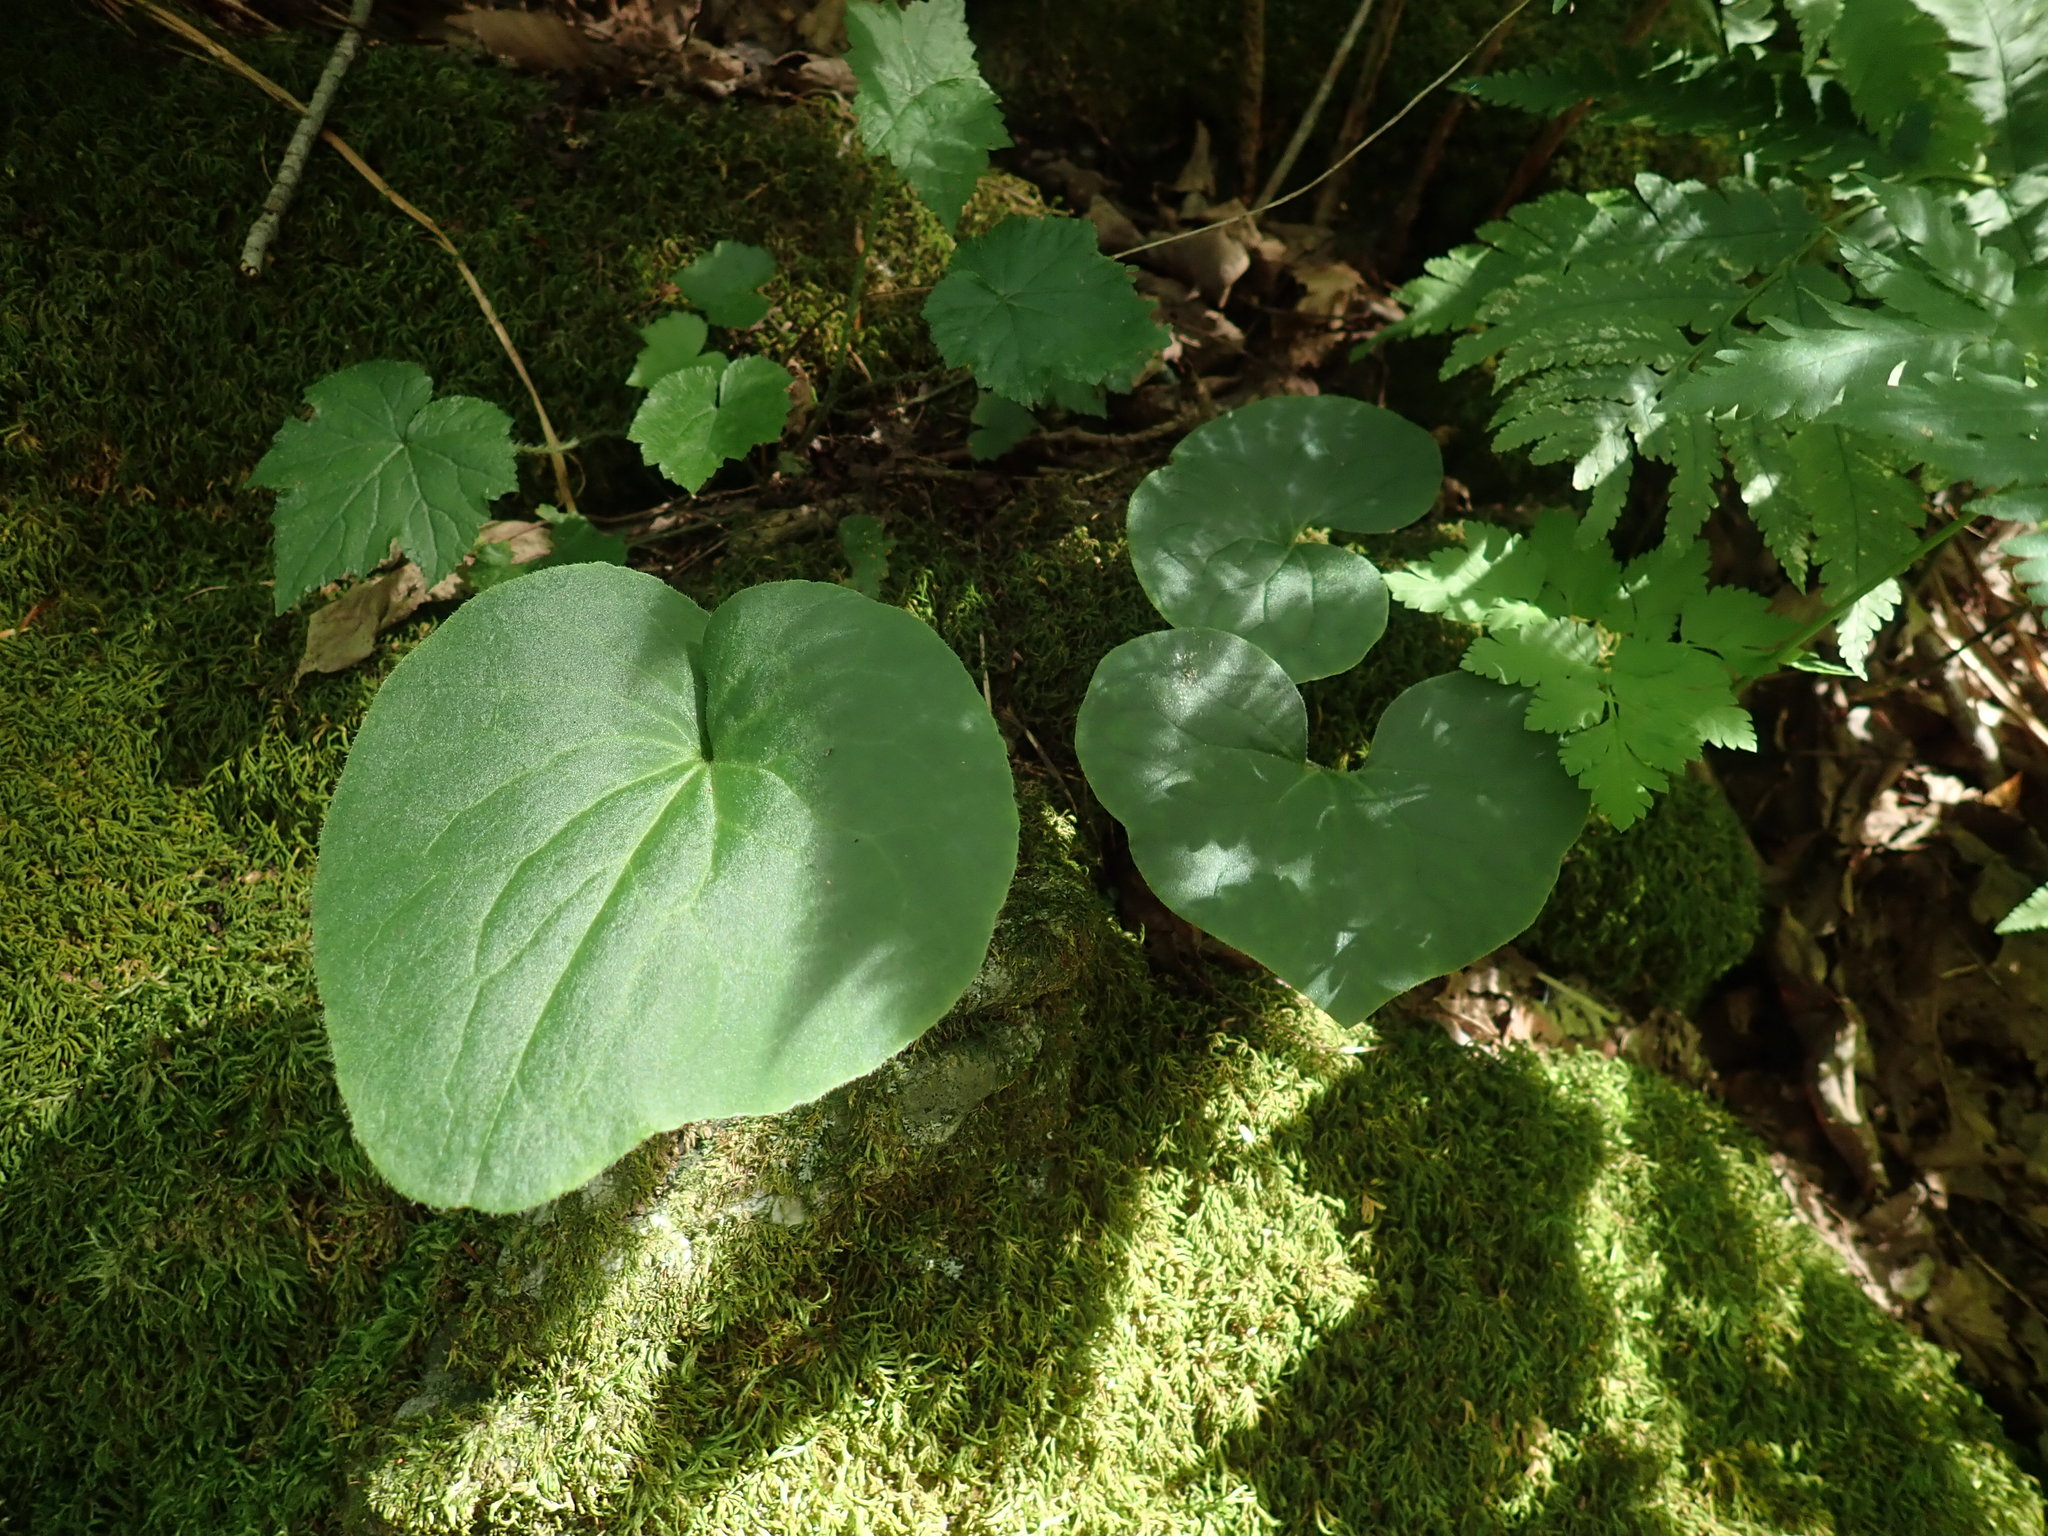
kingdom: Plantae
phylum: Tracheophyta
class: Magnoliopsida
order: Piperales
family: Aristolochiaceae
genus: Asarum
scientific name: Asarum canadense
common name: Wild ginger
